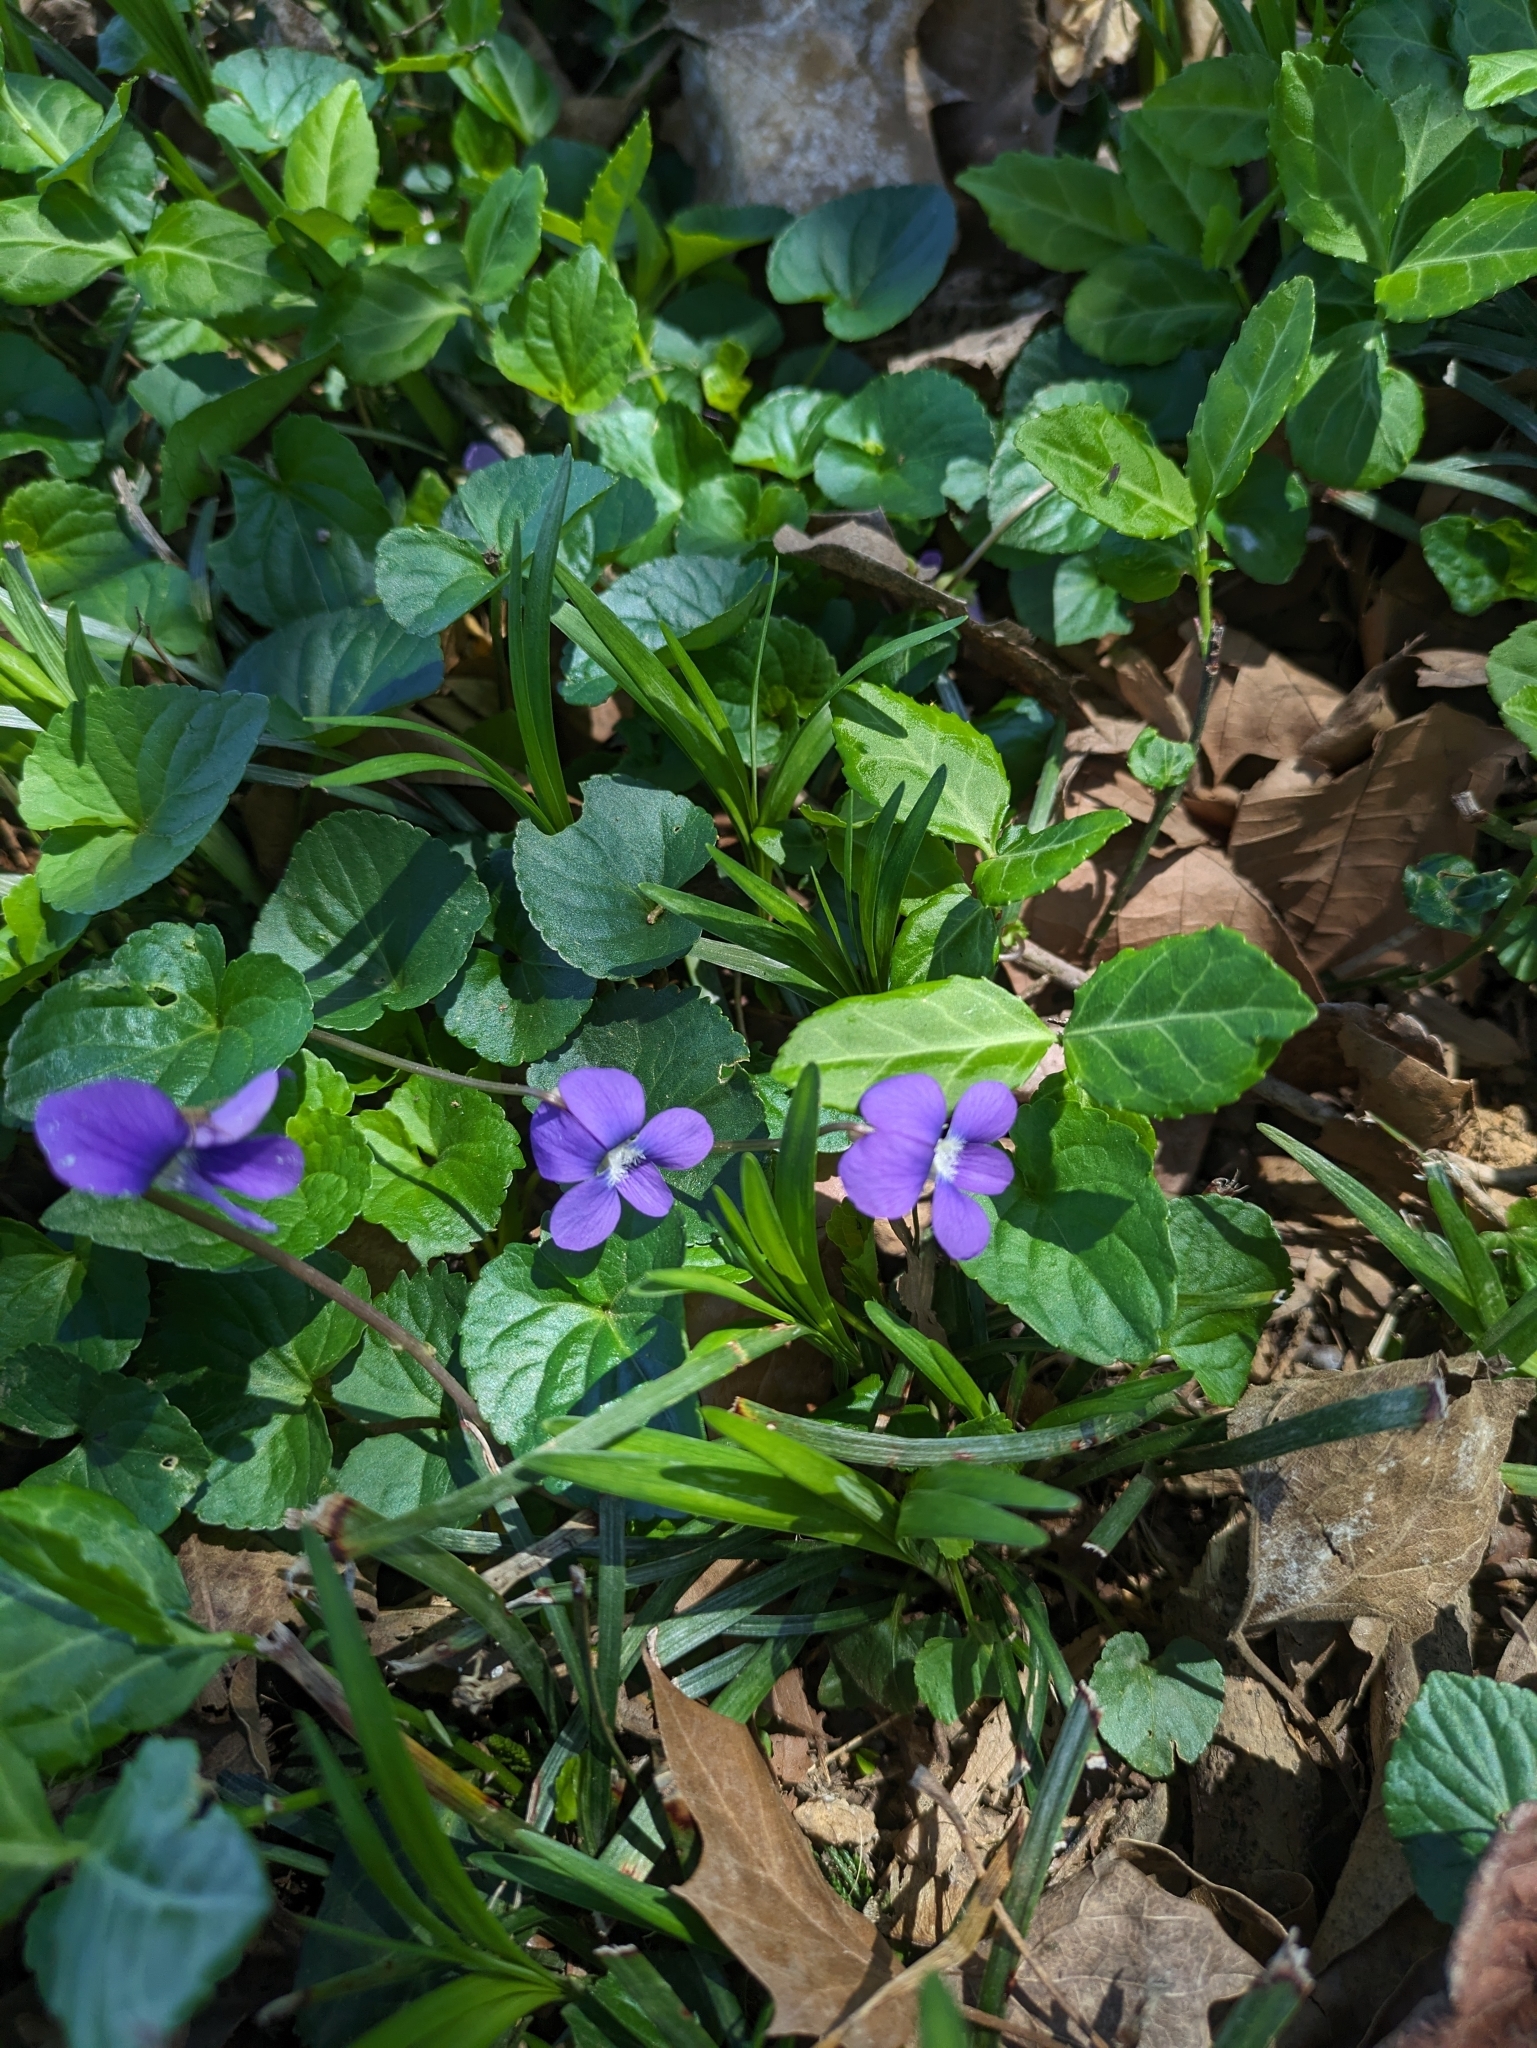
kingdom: Plantae
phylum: Tracheophyta
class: Magnoliopsida
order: Malpighiales
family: Violaceae
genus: Viola
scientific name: Viola sororia
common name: Dooryard violet
